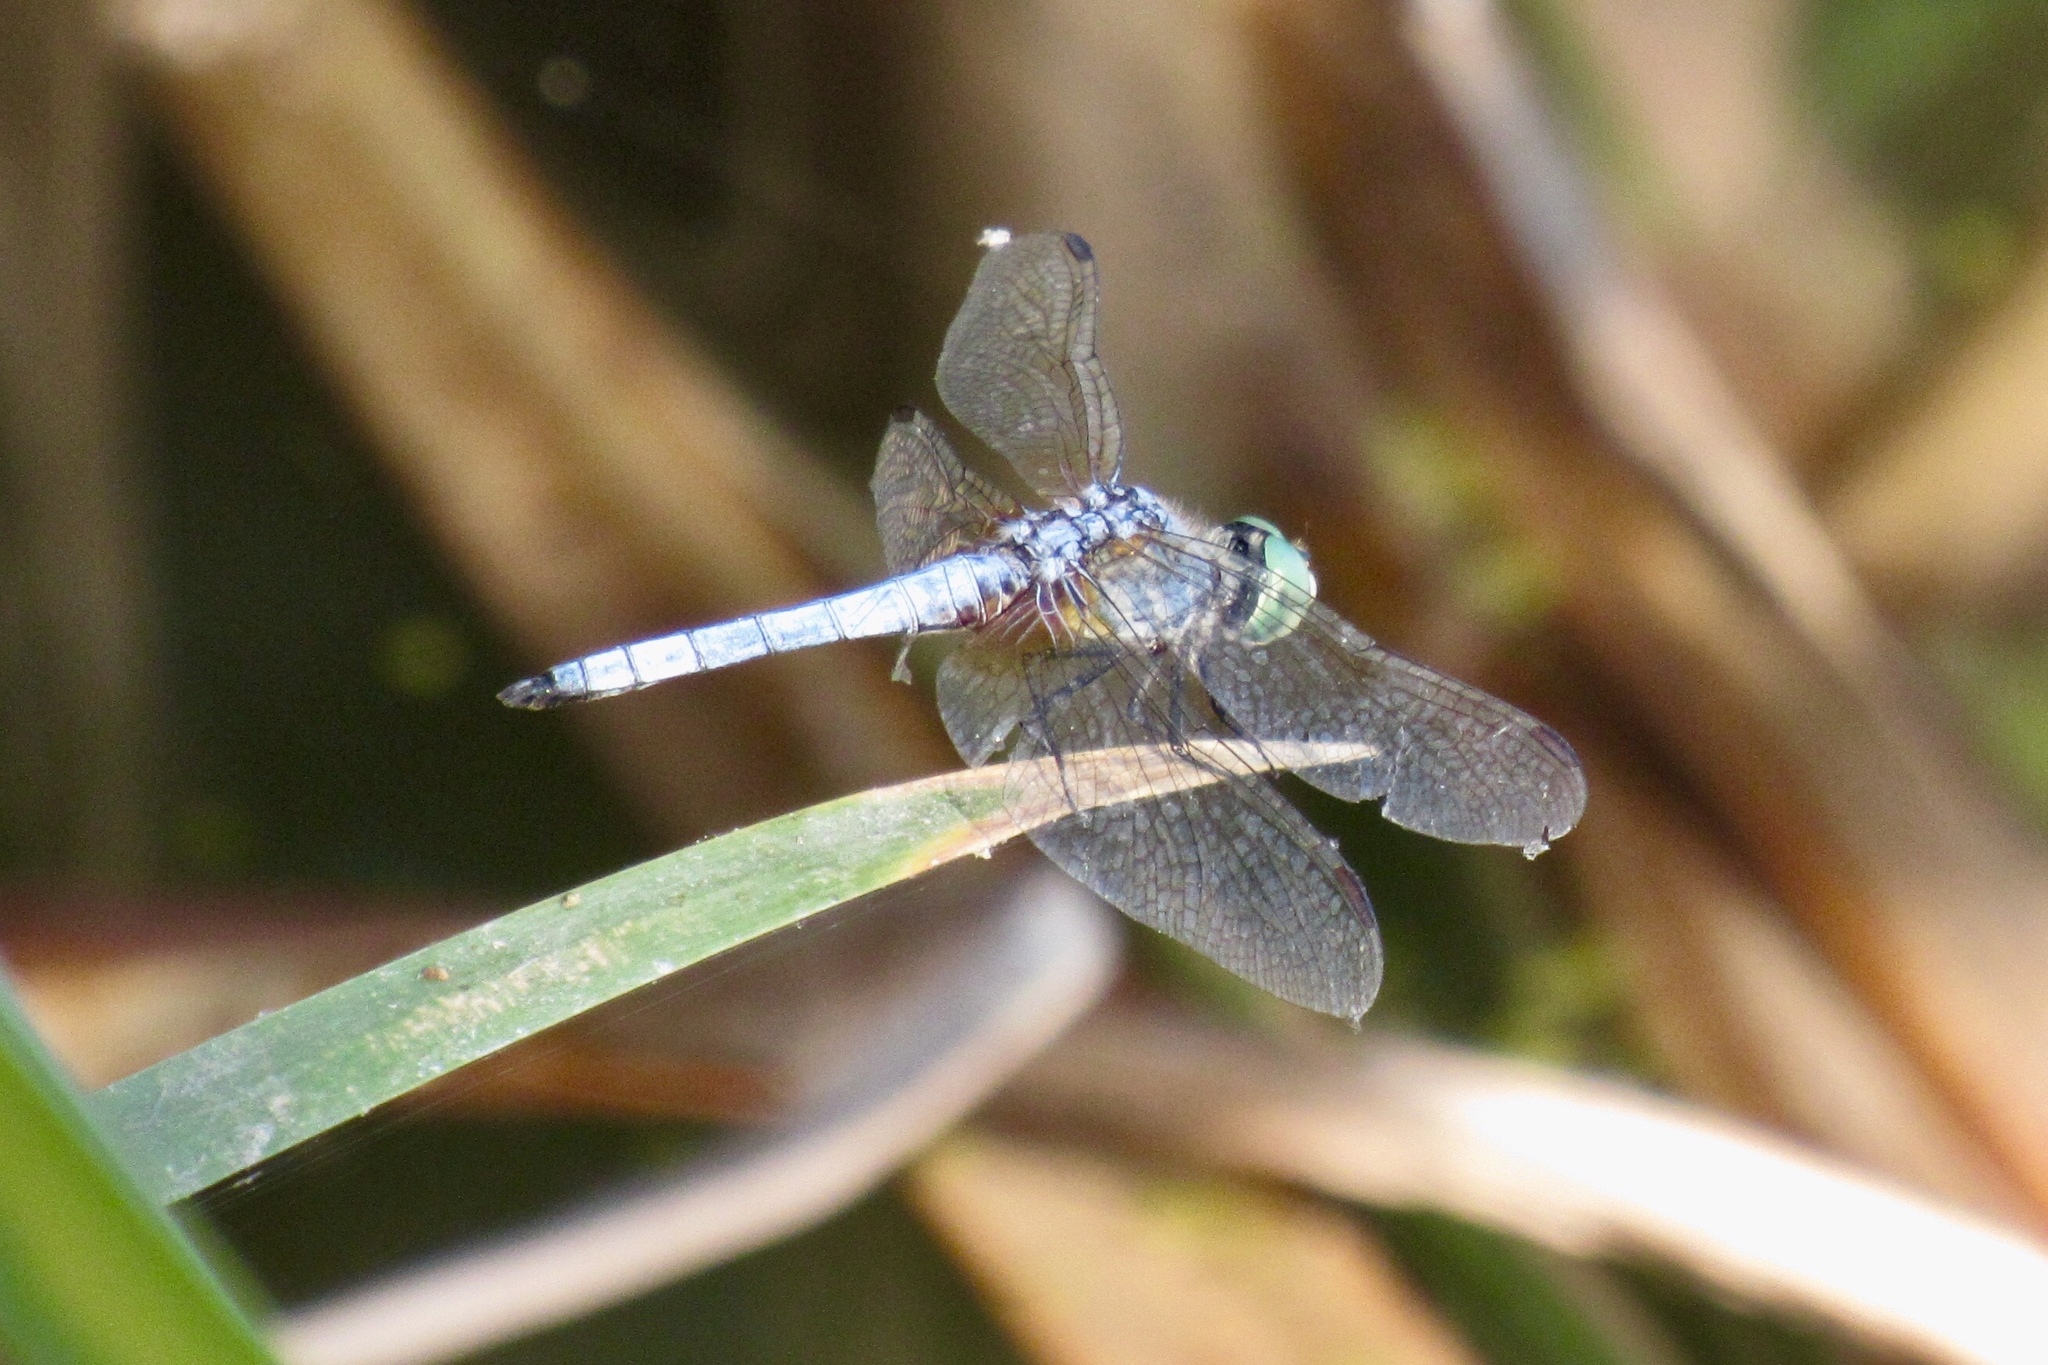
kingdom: Animalia
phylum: Arthropoda
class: Insecta
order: Odonata
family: Libellulidae
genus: Pachydiplax
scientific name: Pachydiplax longipennis
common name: Blue dasher
